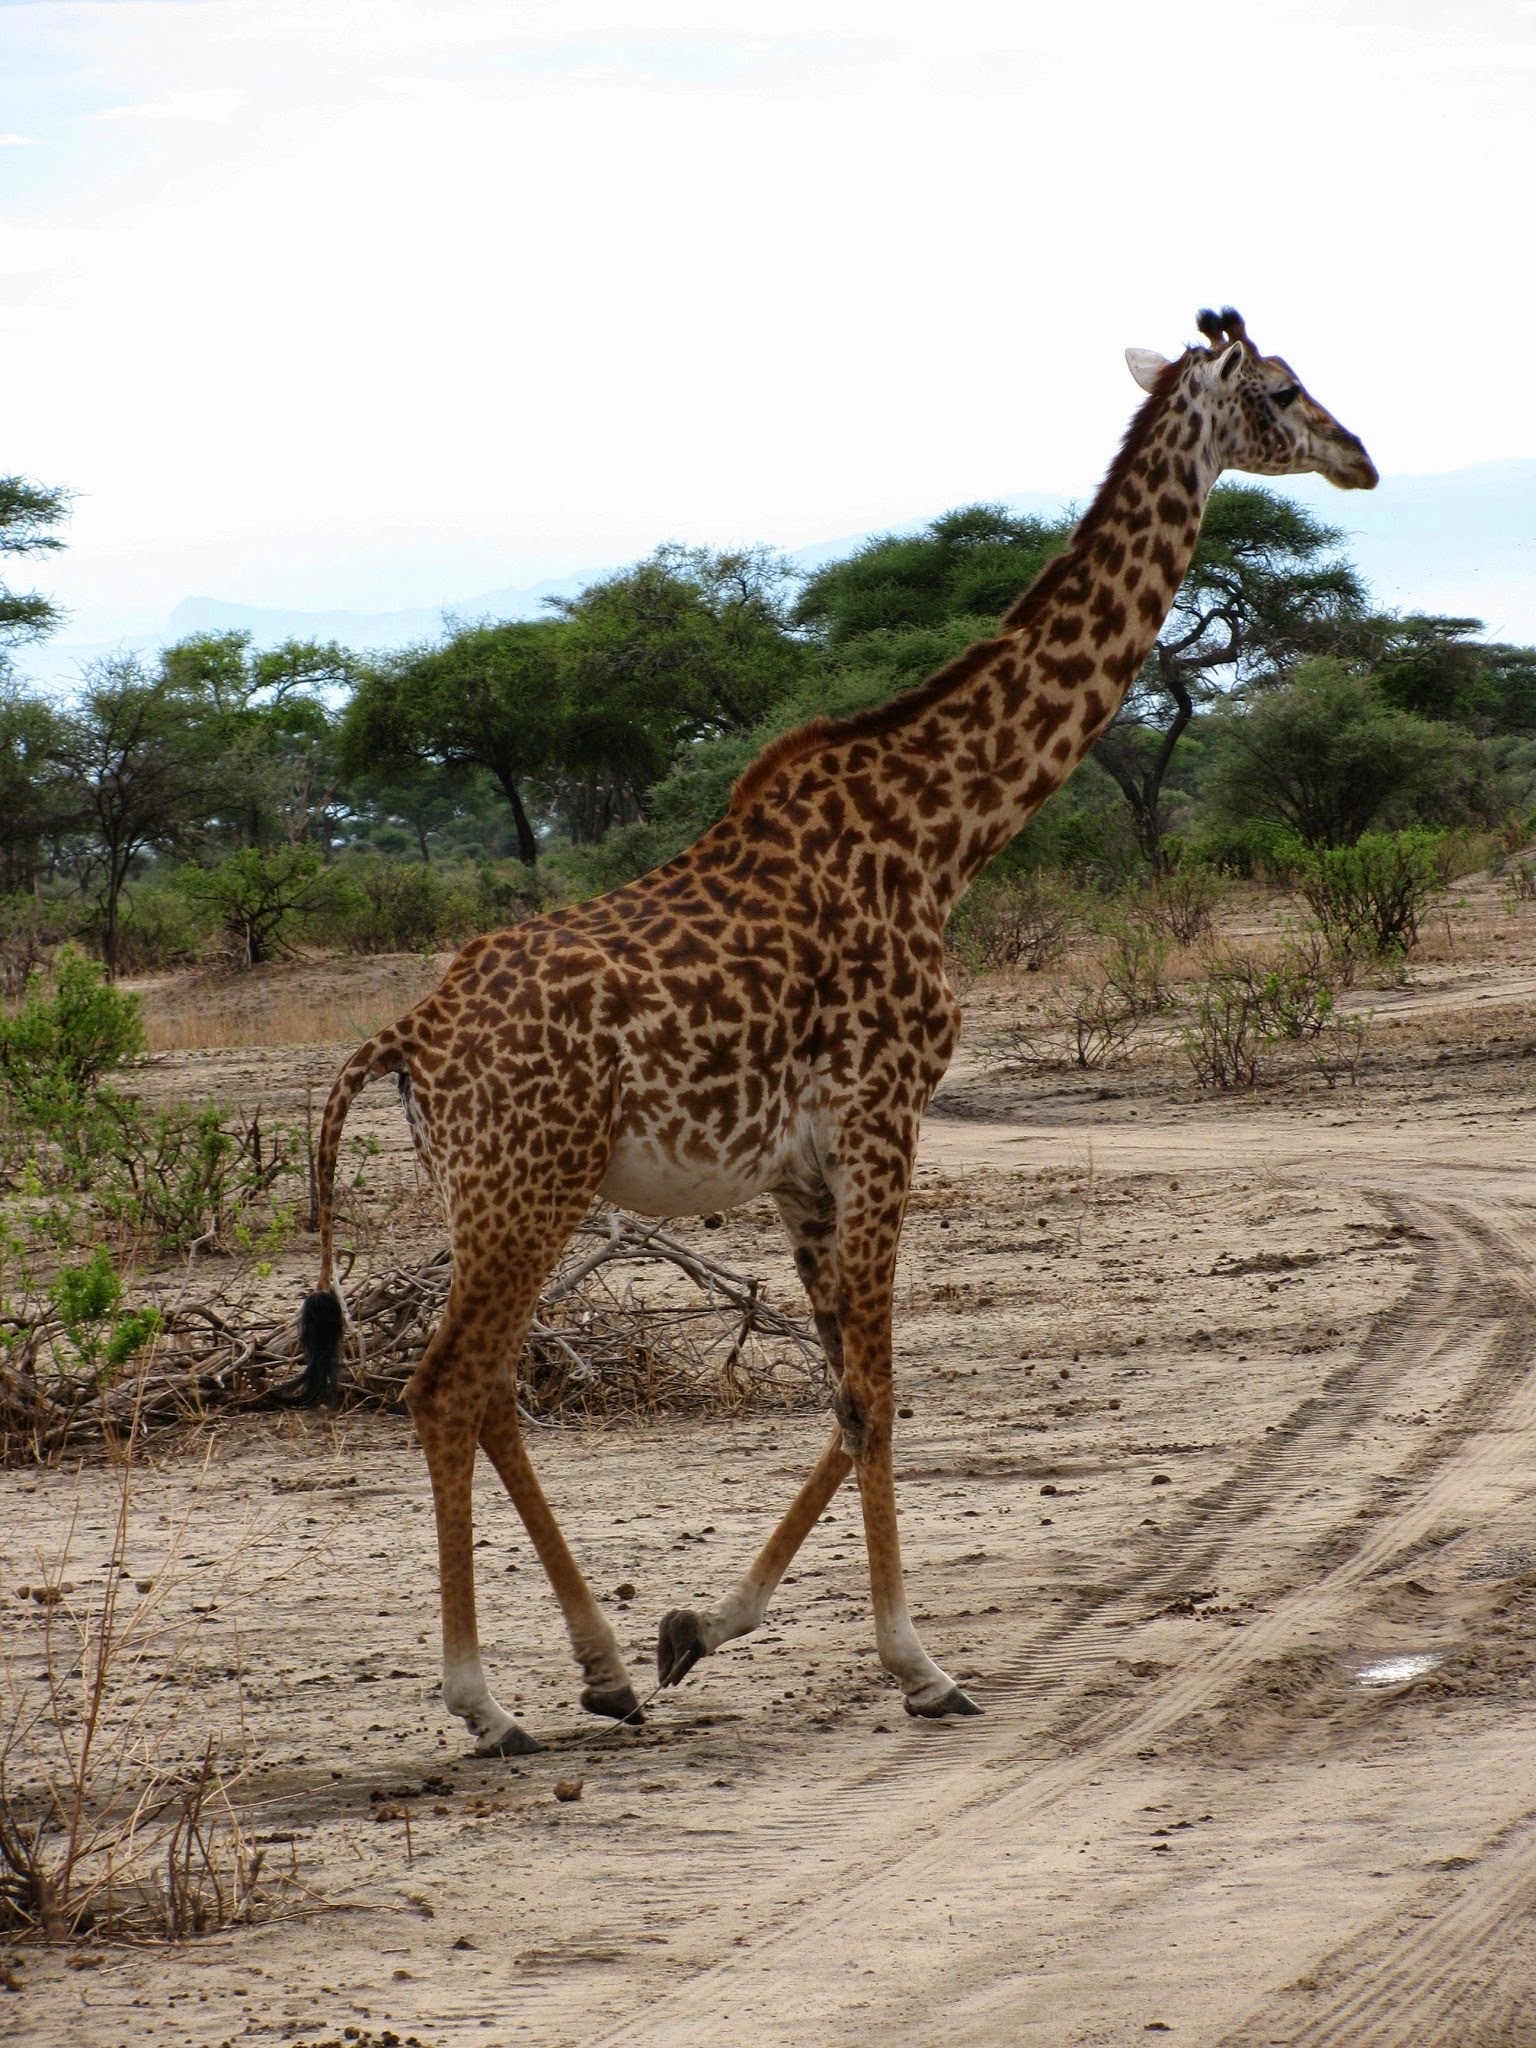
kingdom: Animalia
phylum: Chordata
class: Mammalia
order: Artiodactyla
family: Giraffidae
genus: Giraffa
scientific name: Giraffa tippelskirchi
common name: Masai giraffe
